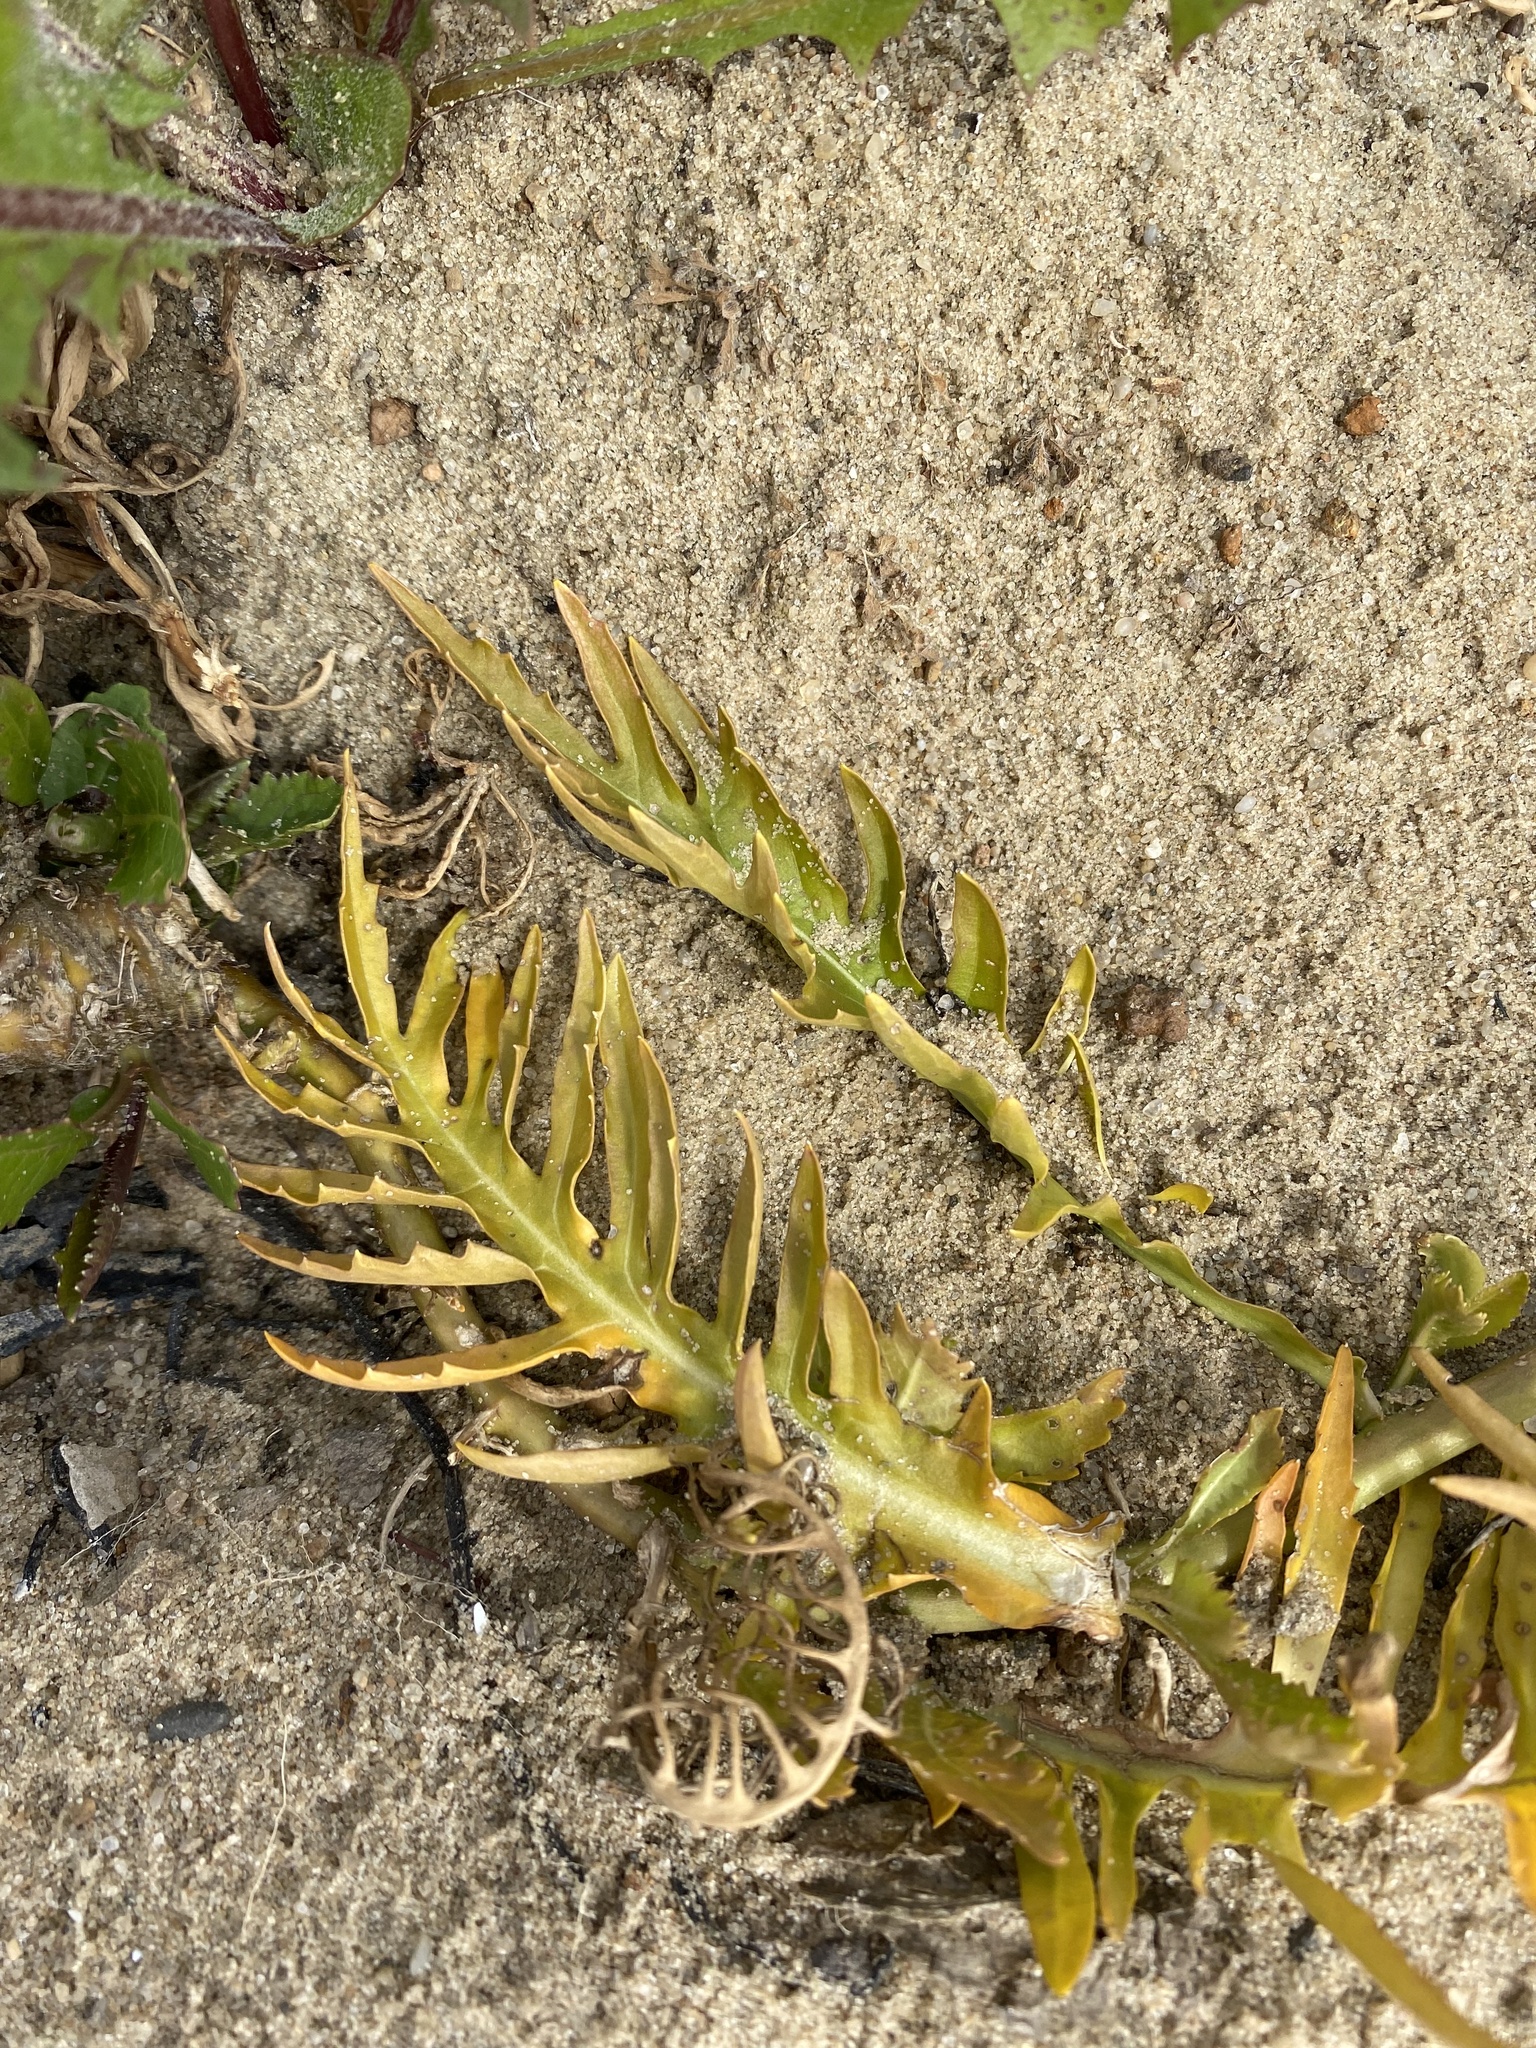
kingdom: Plantae
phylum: Tracheophyta
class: Magnoliopsida
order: Brassicales
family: Brassicaceae
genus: Rorippa
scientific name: Rorippa amphibia
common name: Great yellow-cress
